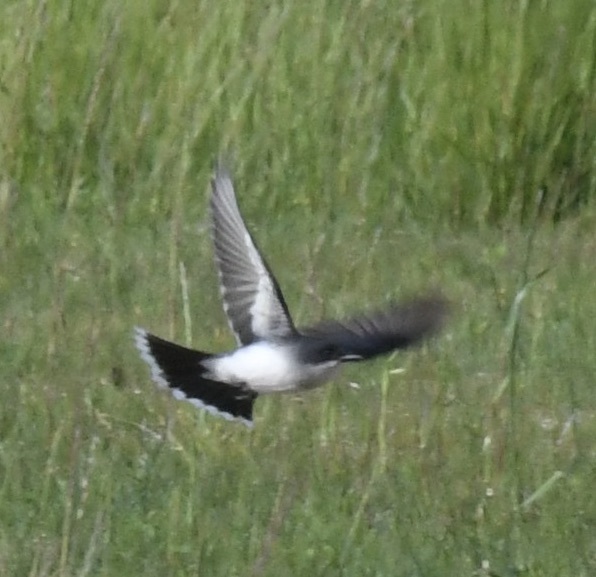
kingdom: Animalia
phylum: Chordata
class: Aves
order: Passeriformes
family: Tyrannidae
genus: Tyrannus
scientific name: Tyrannus tyrannus
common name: Eastern kingbird
